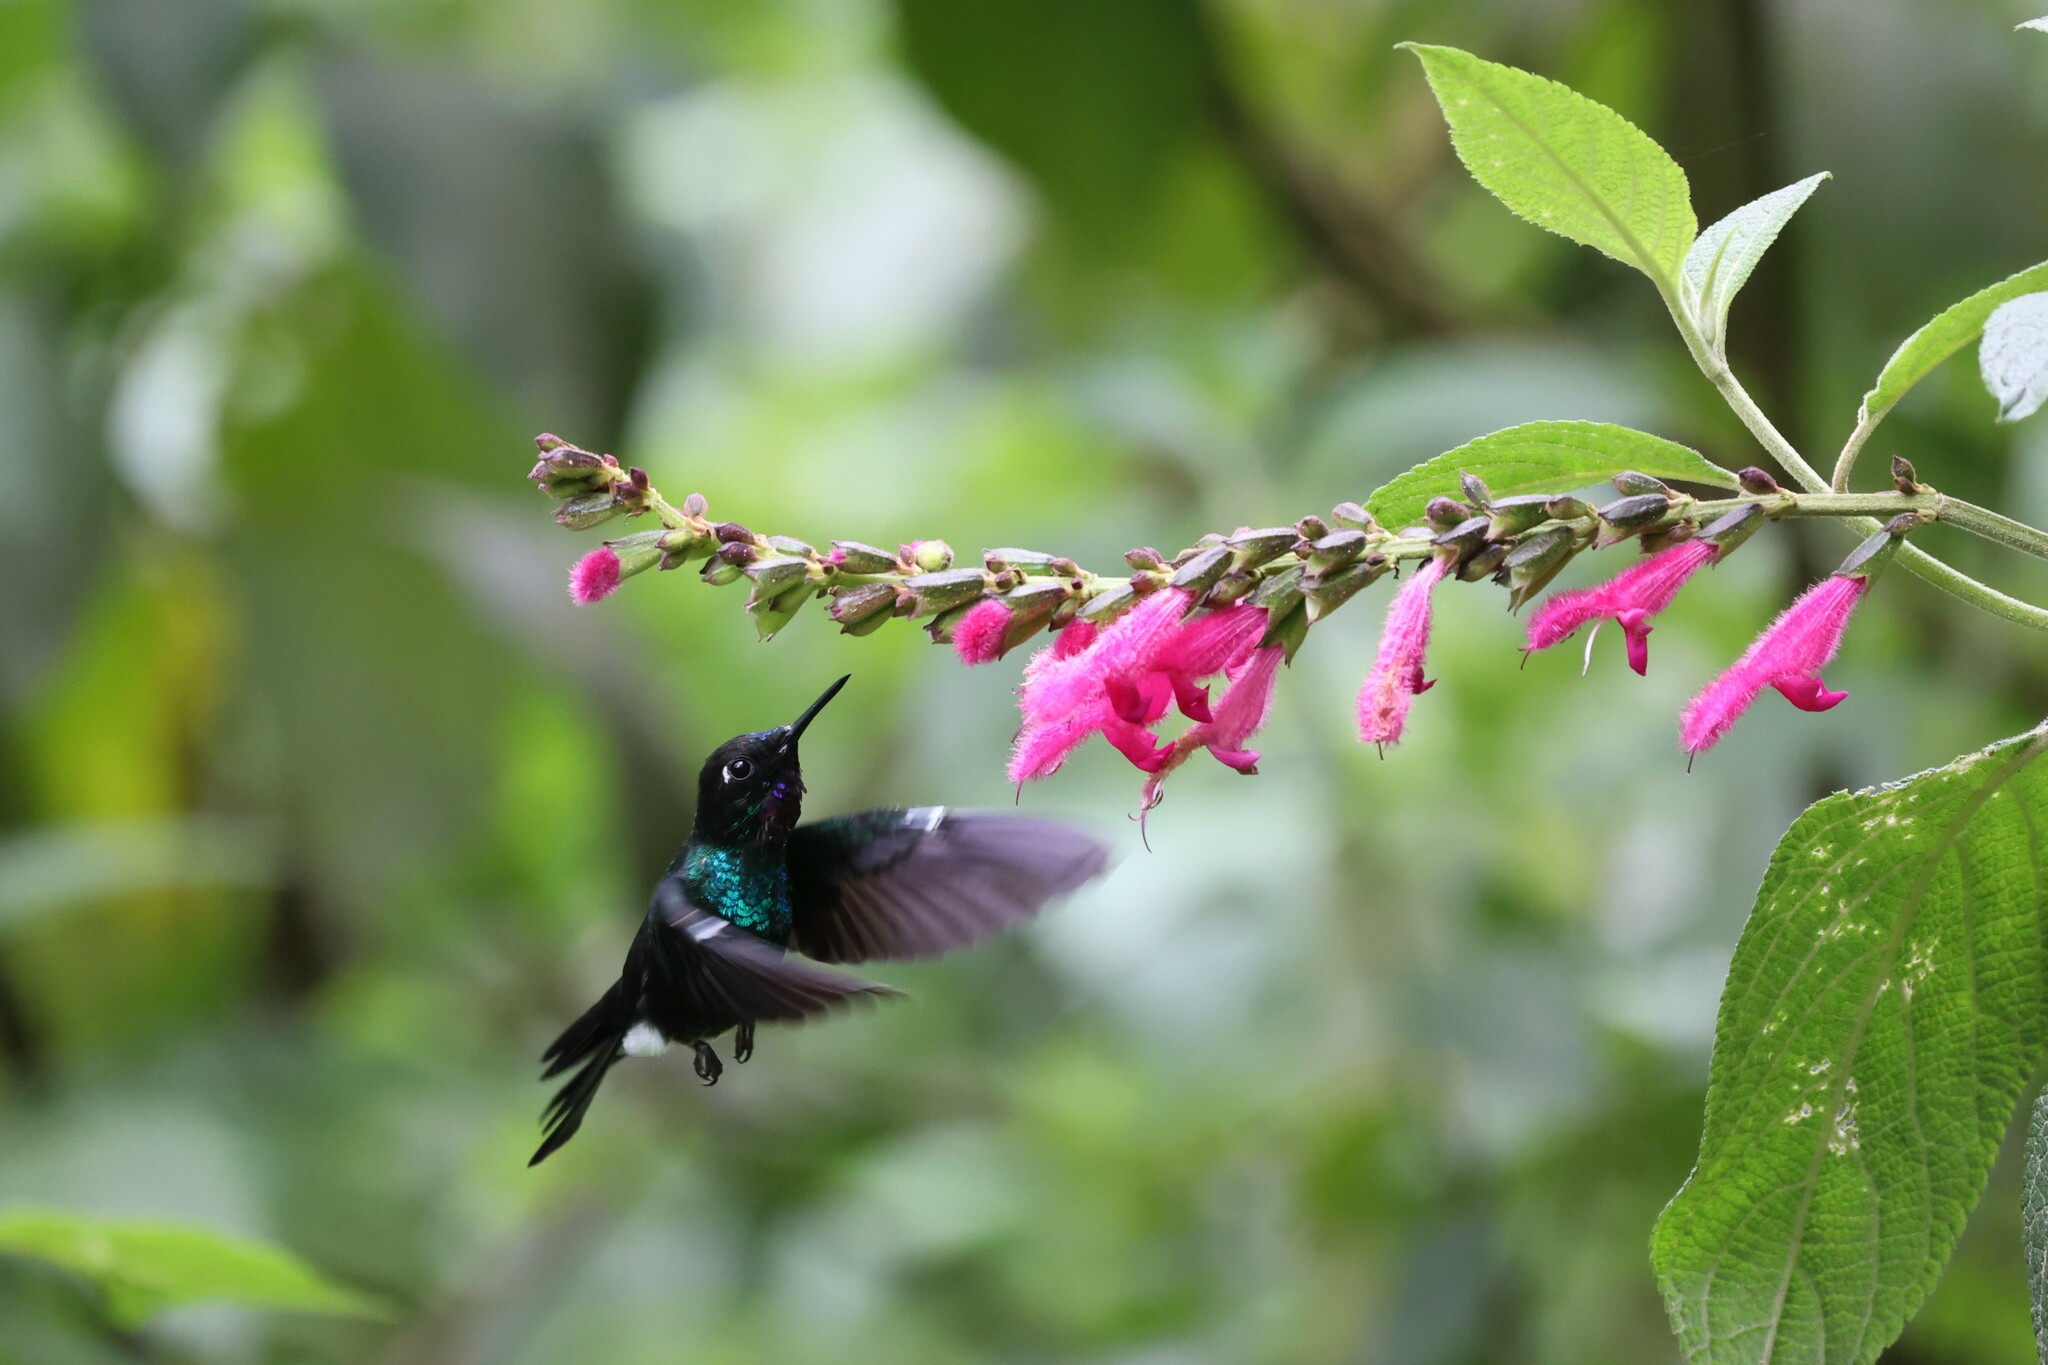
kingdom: Plantae
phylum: Tracheophyta
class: Magnoliopsida
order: Lamiales
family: Lamiaceae
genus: Salvia
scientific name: Salvia tortuosa
